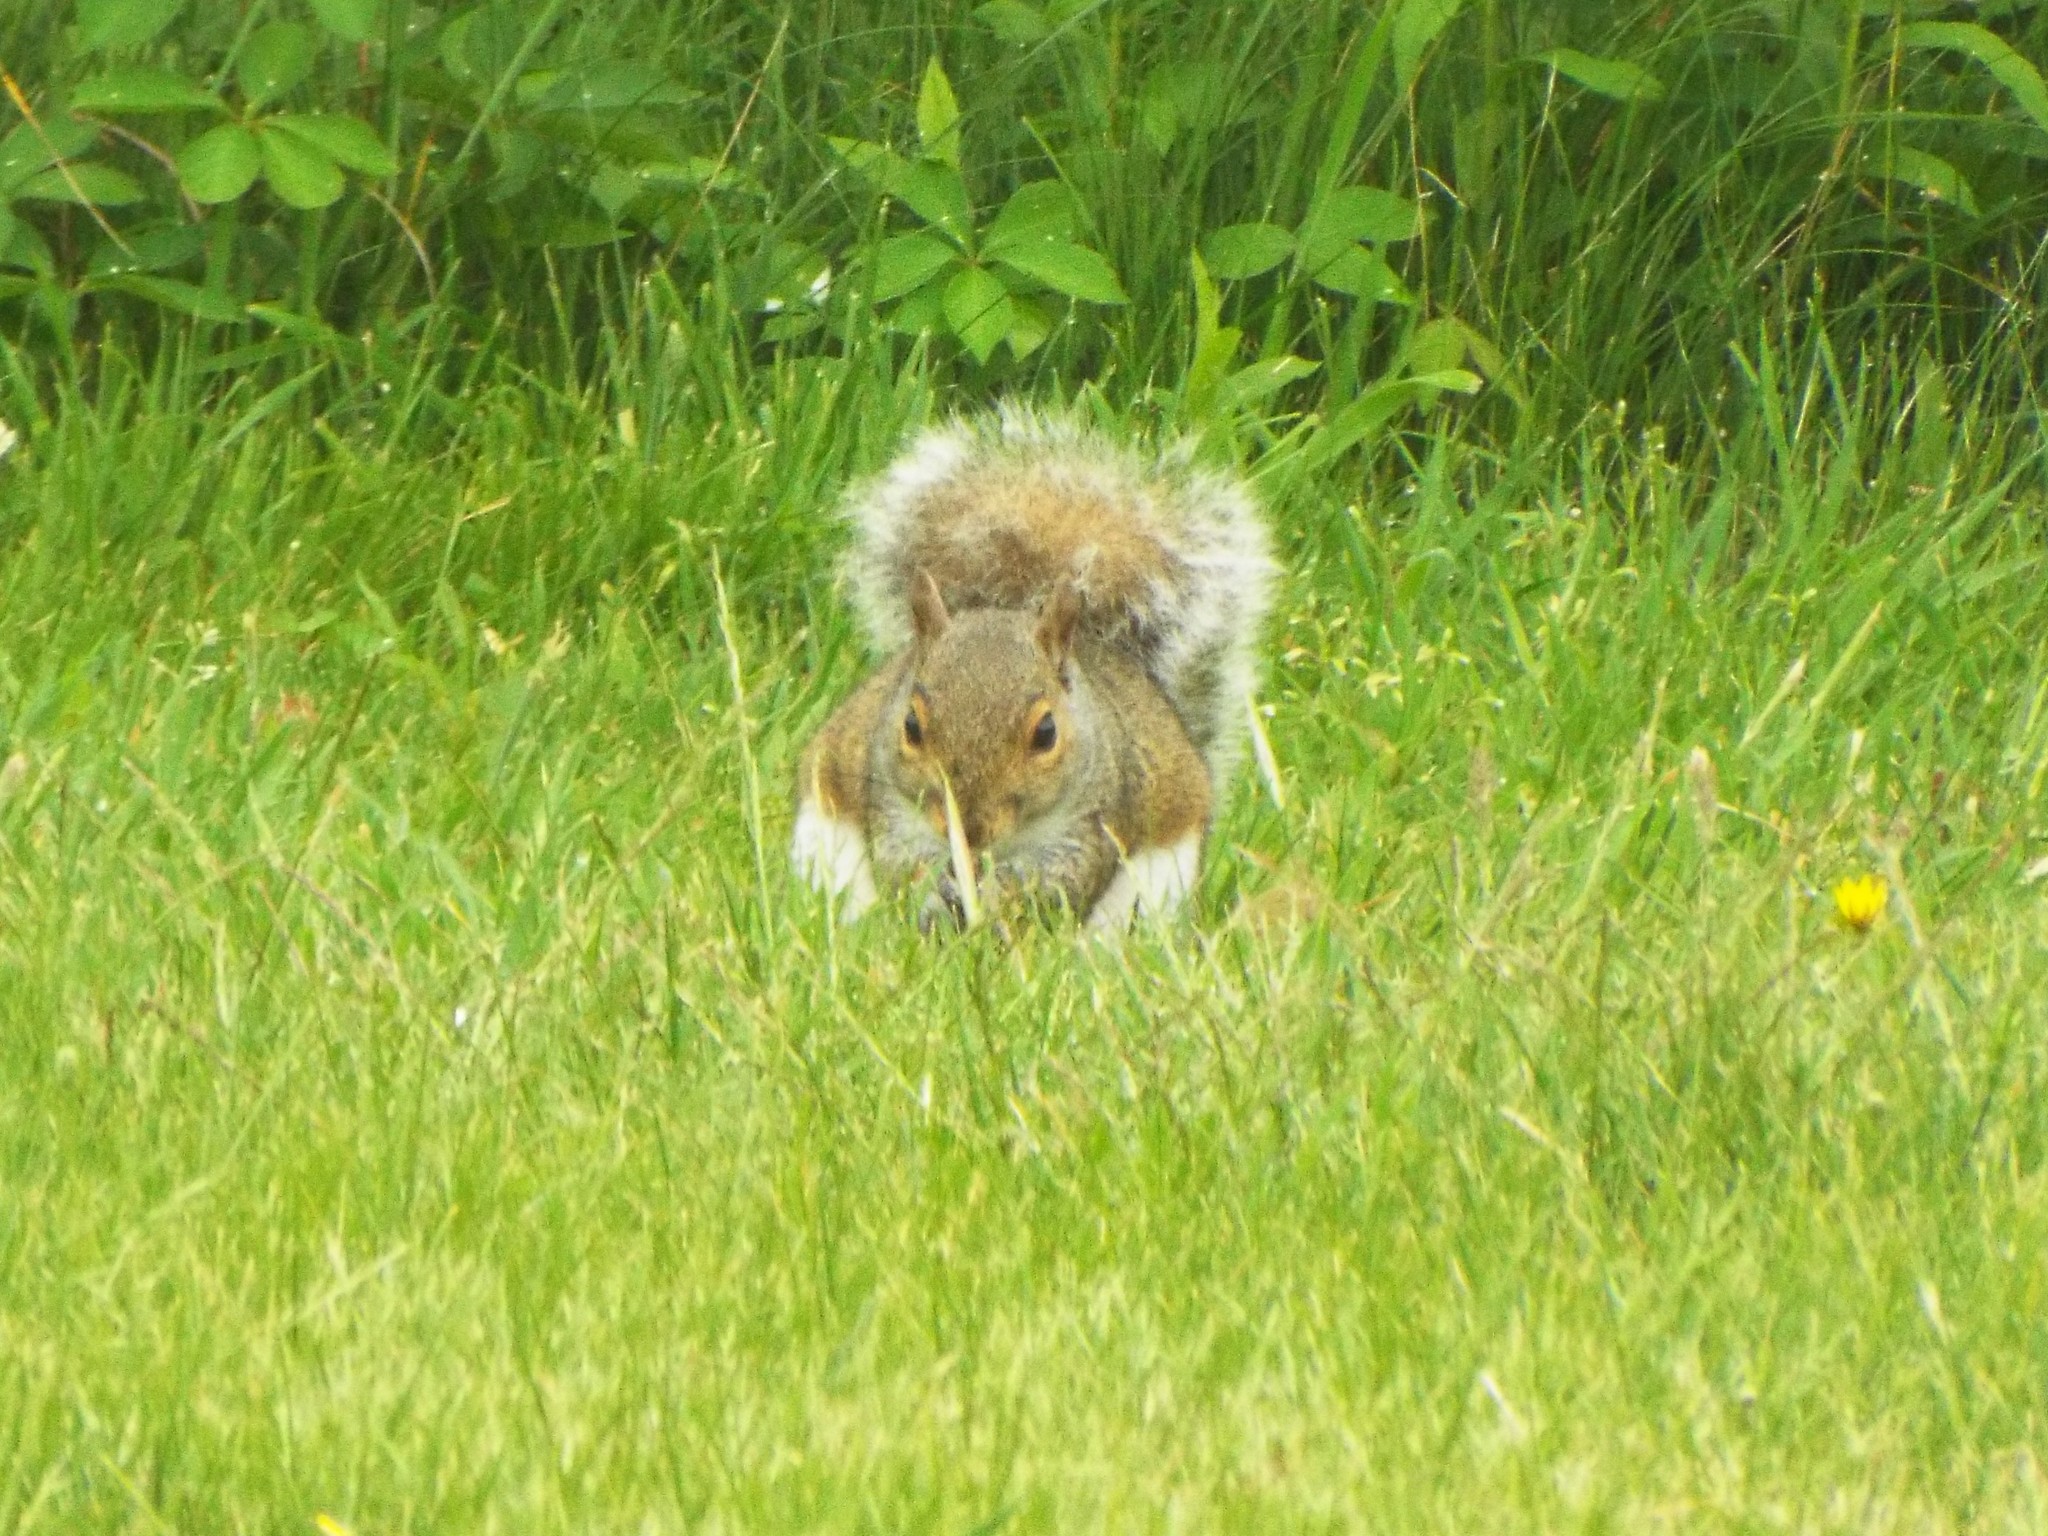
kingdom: Animalia
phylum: Chordata
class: Mammalia
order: Rodentia
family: Sciuridae
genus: Sciurus
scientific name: Sciurus carolinensis
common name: Eastern gray squirrel
